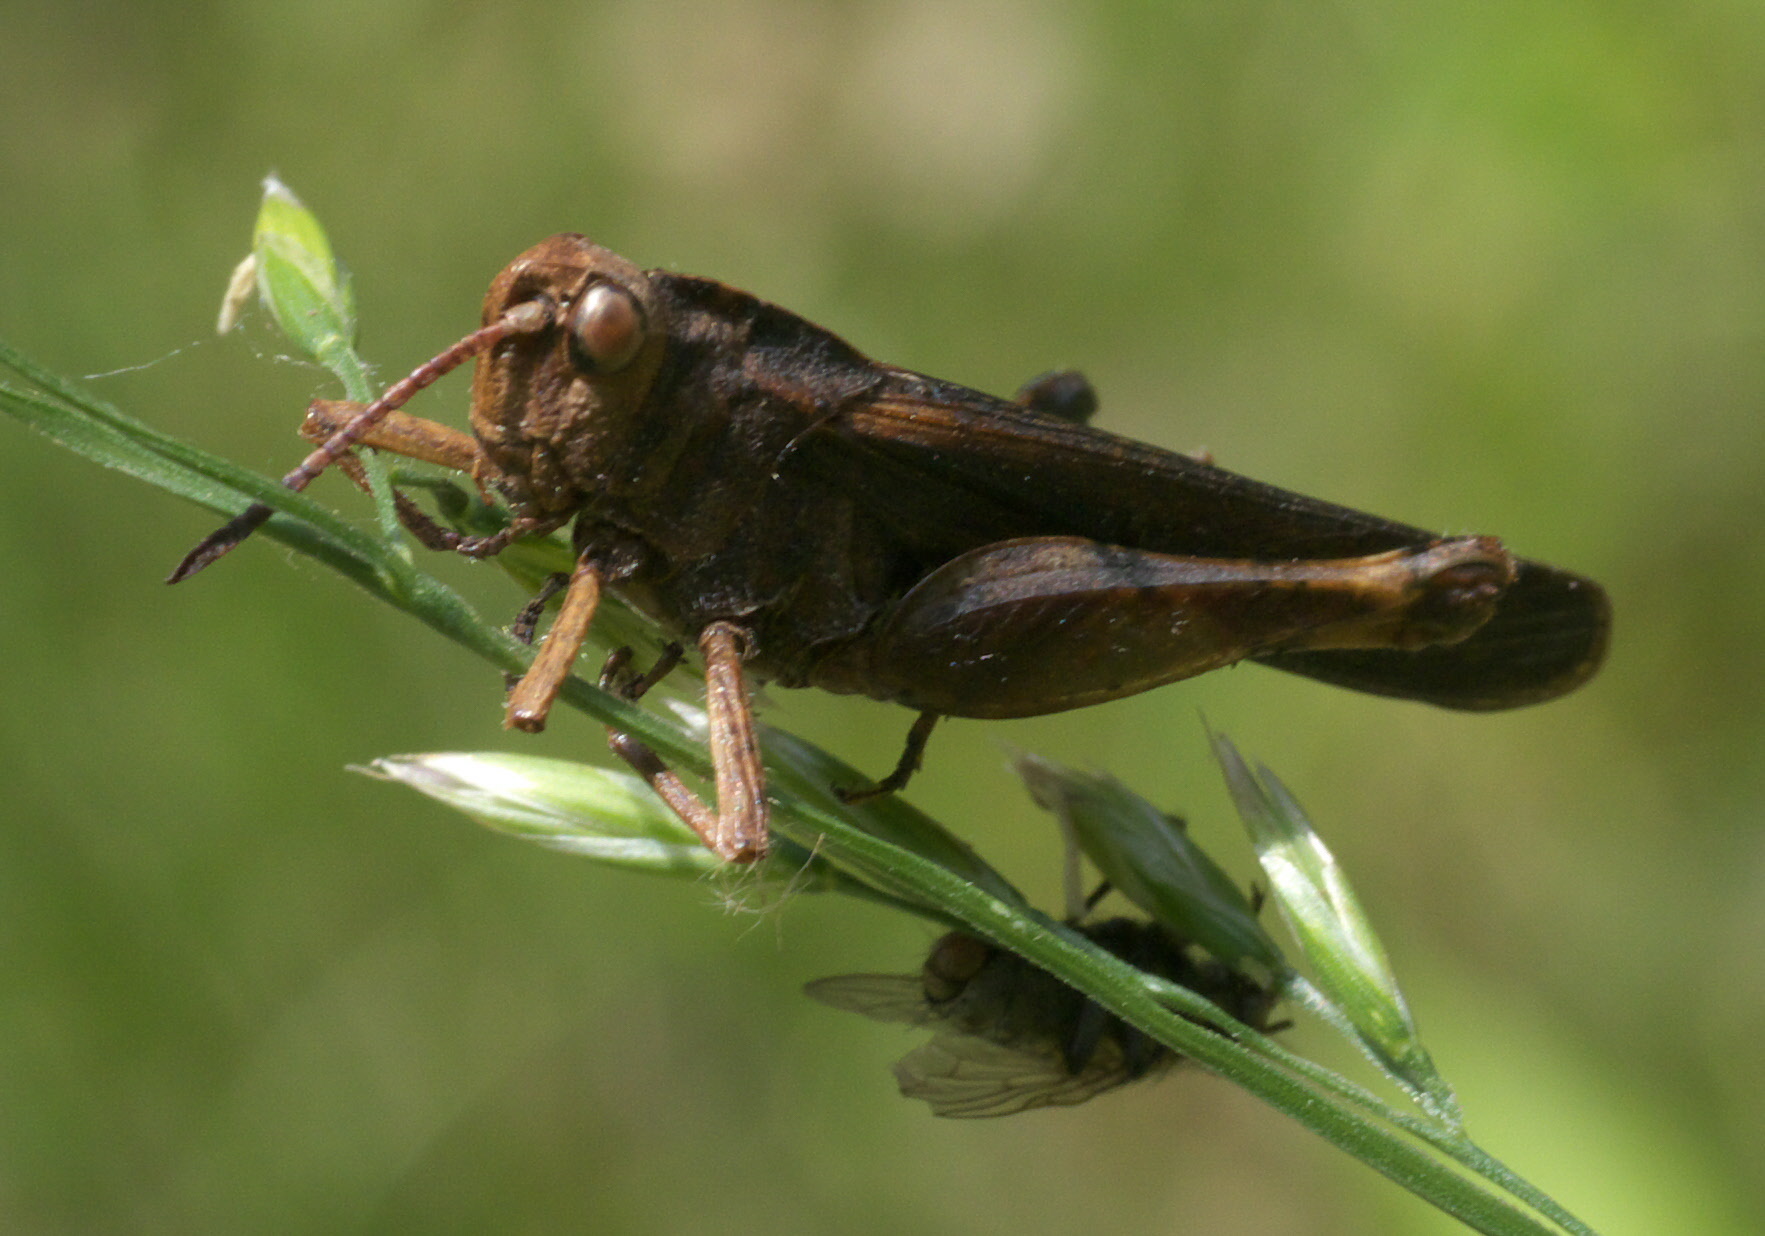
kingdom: Animalia
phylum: Arthropoda
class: Insecta
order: Orthoptera
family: Acrididae
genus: Chortophaga
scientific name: Chortophaga viridifasciata
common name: Green-striped grasshopper
